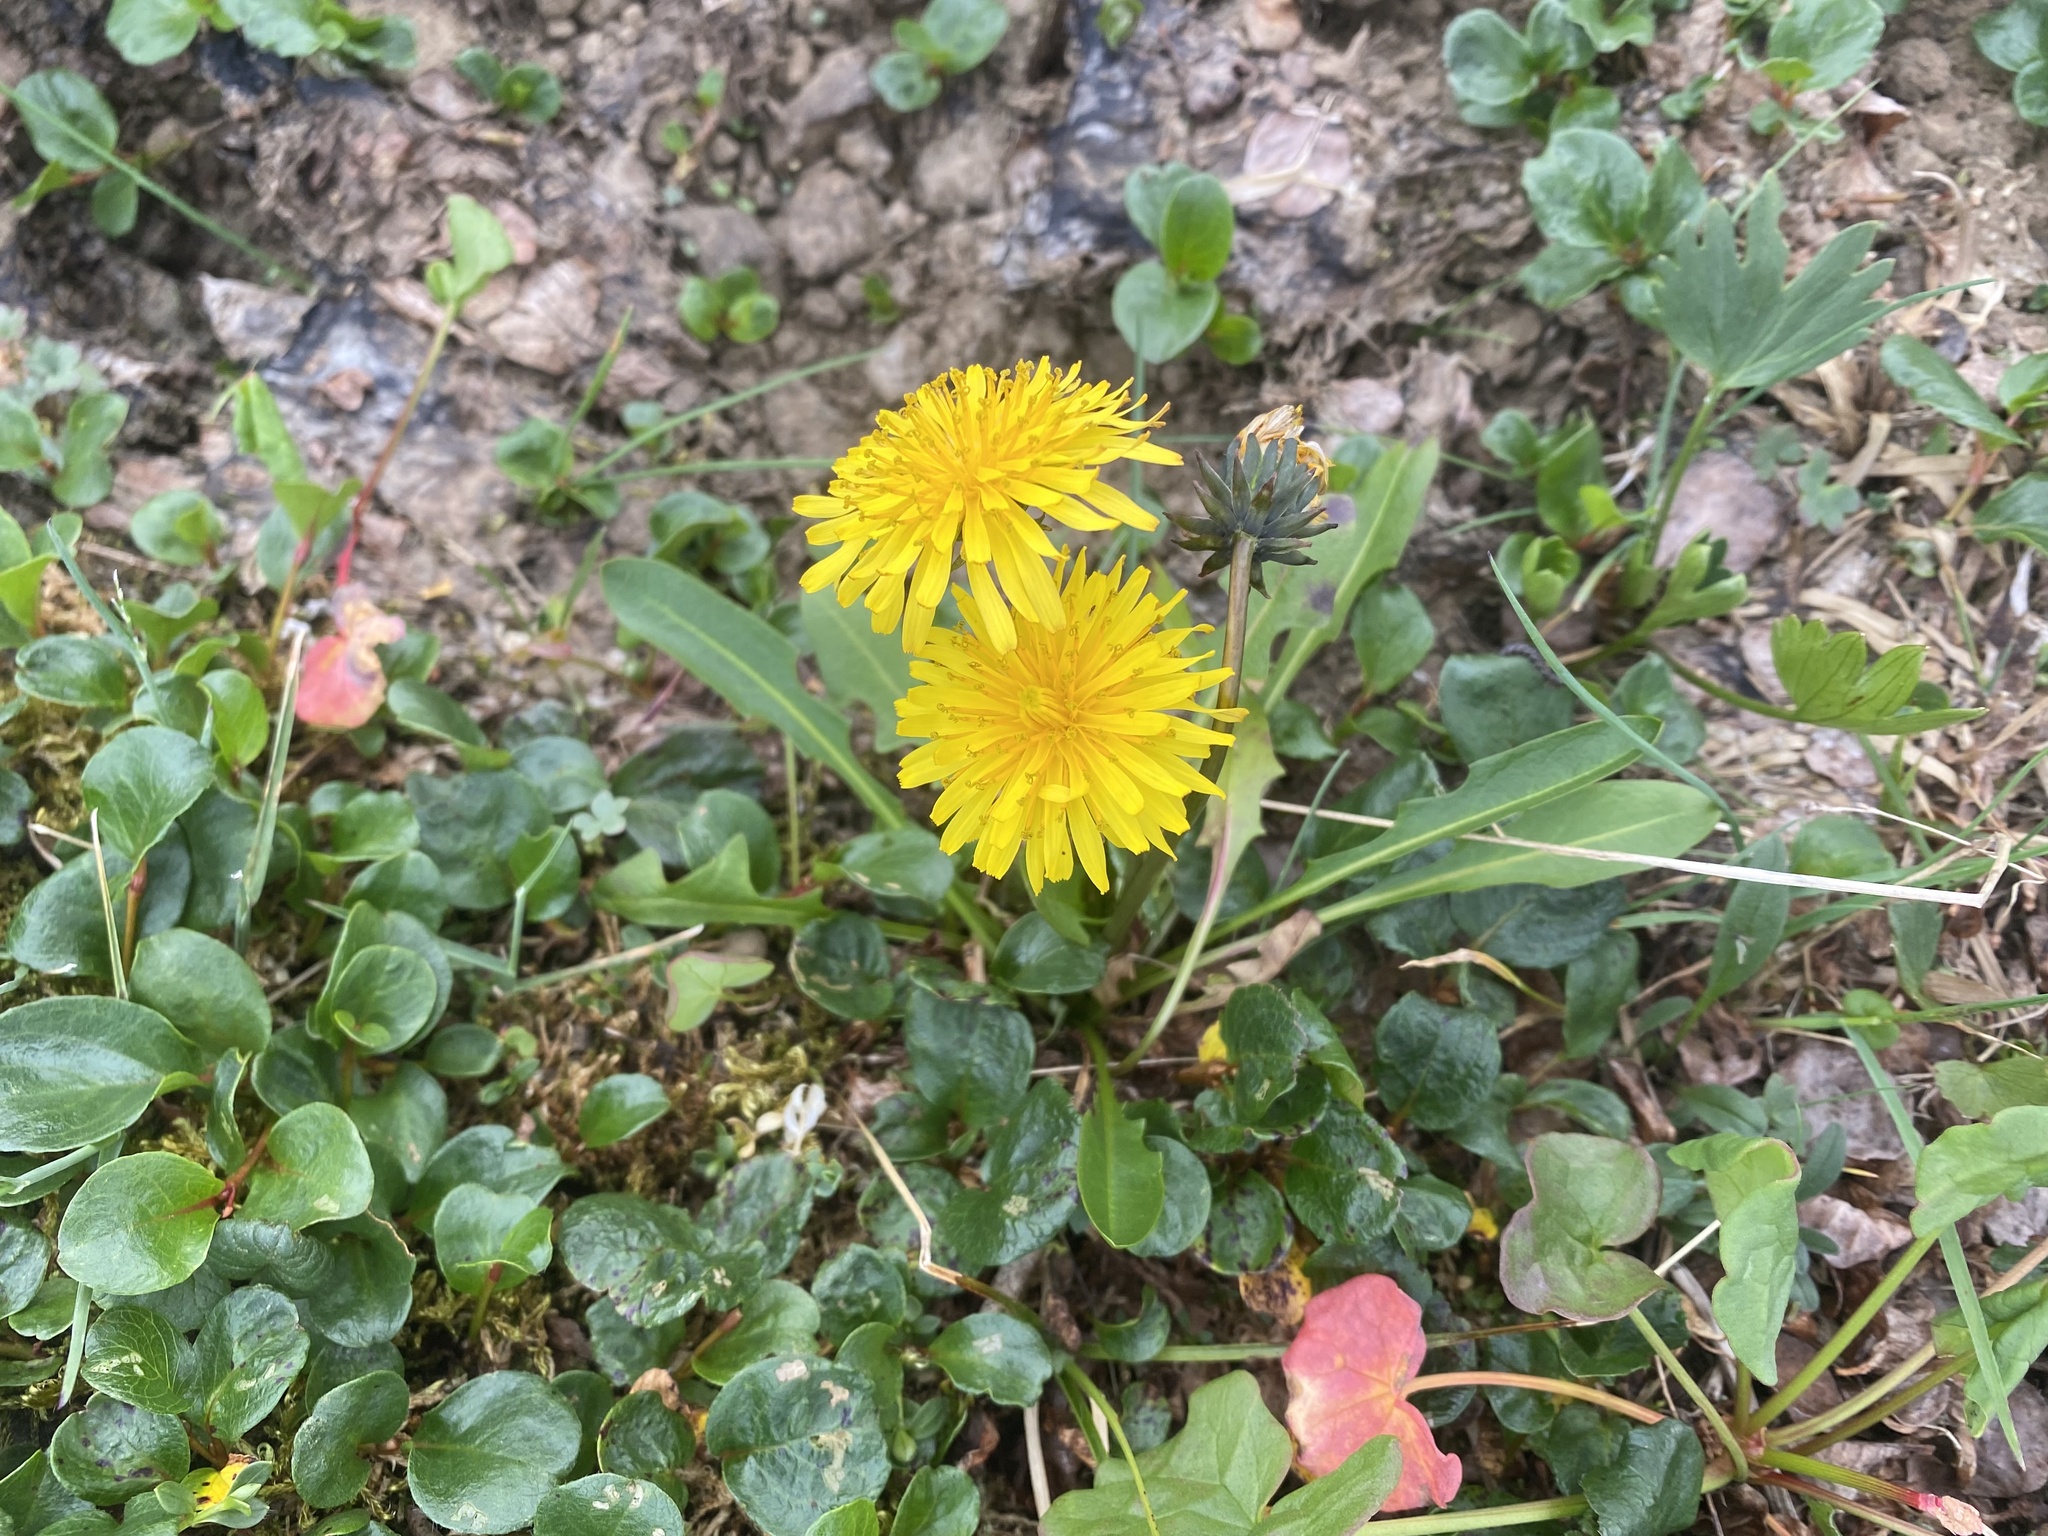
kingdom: Plantae
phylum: Tracheophyta
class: Magnoliopsida
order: Asterales
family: Asteraceae
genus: Taraxacum
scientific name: Taraxacum macilentum
